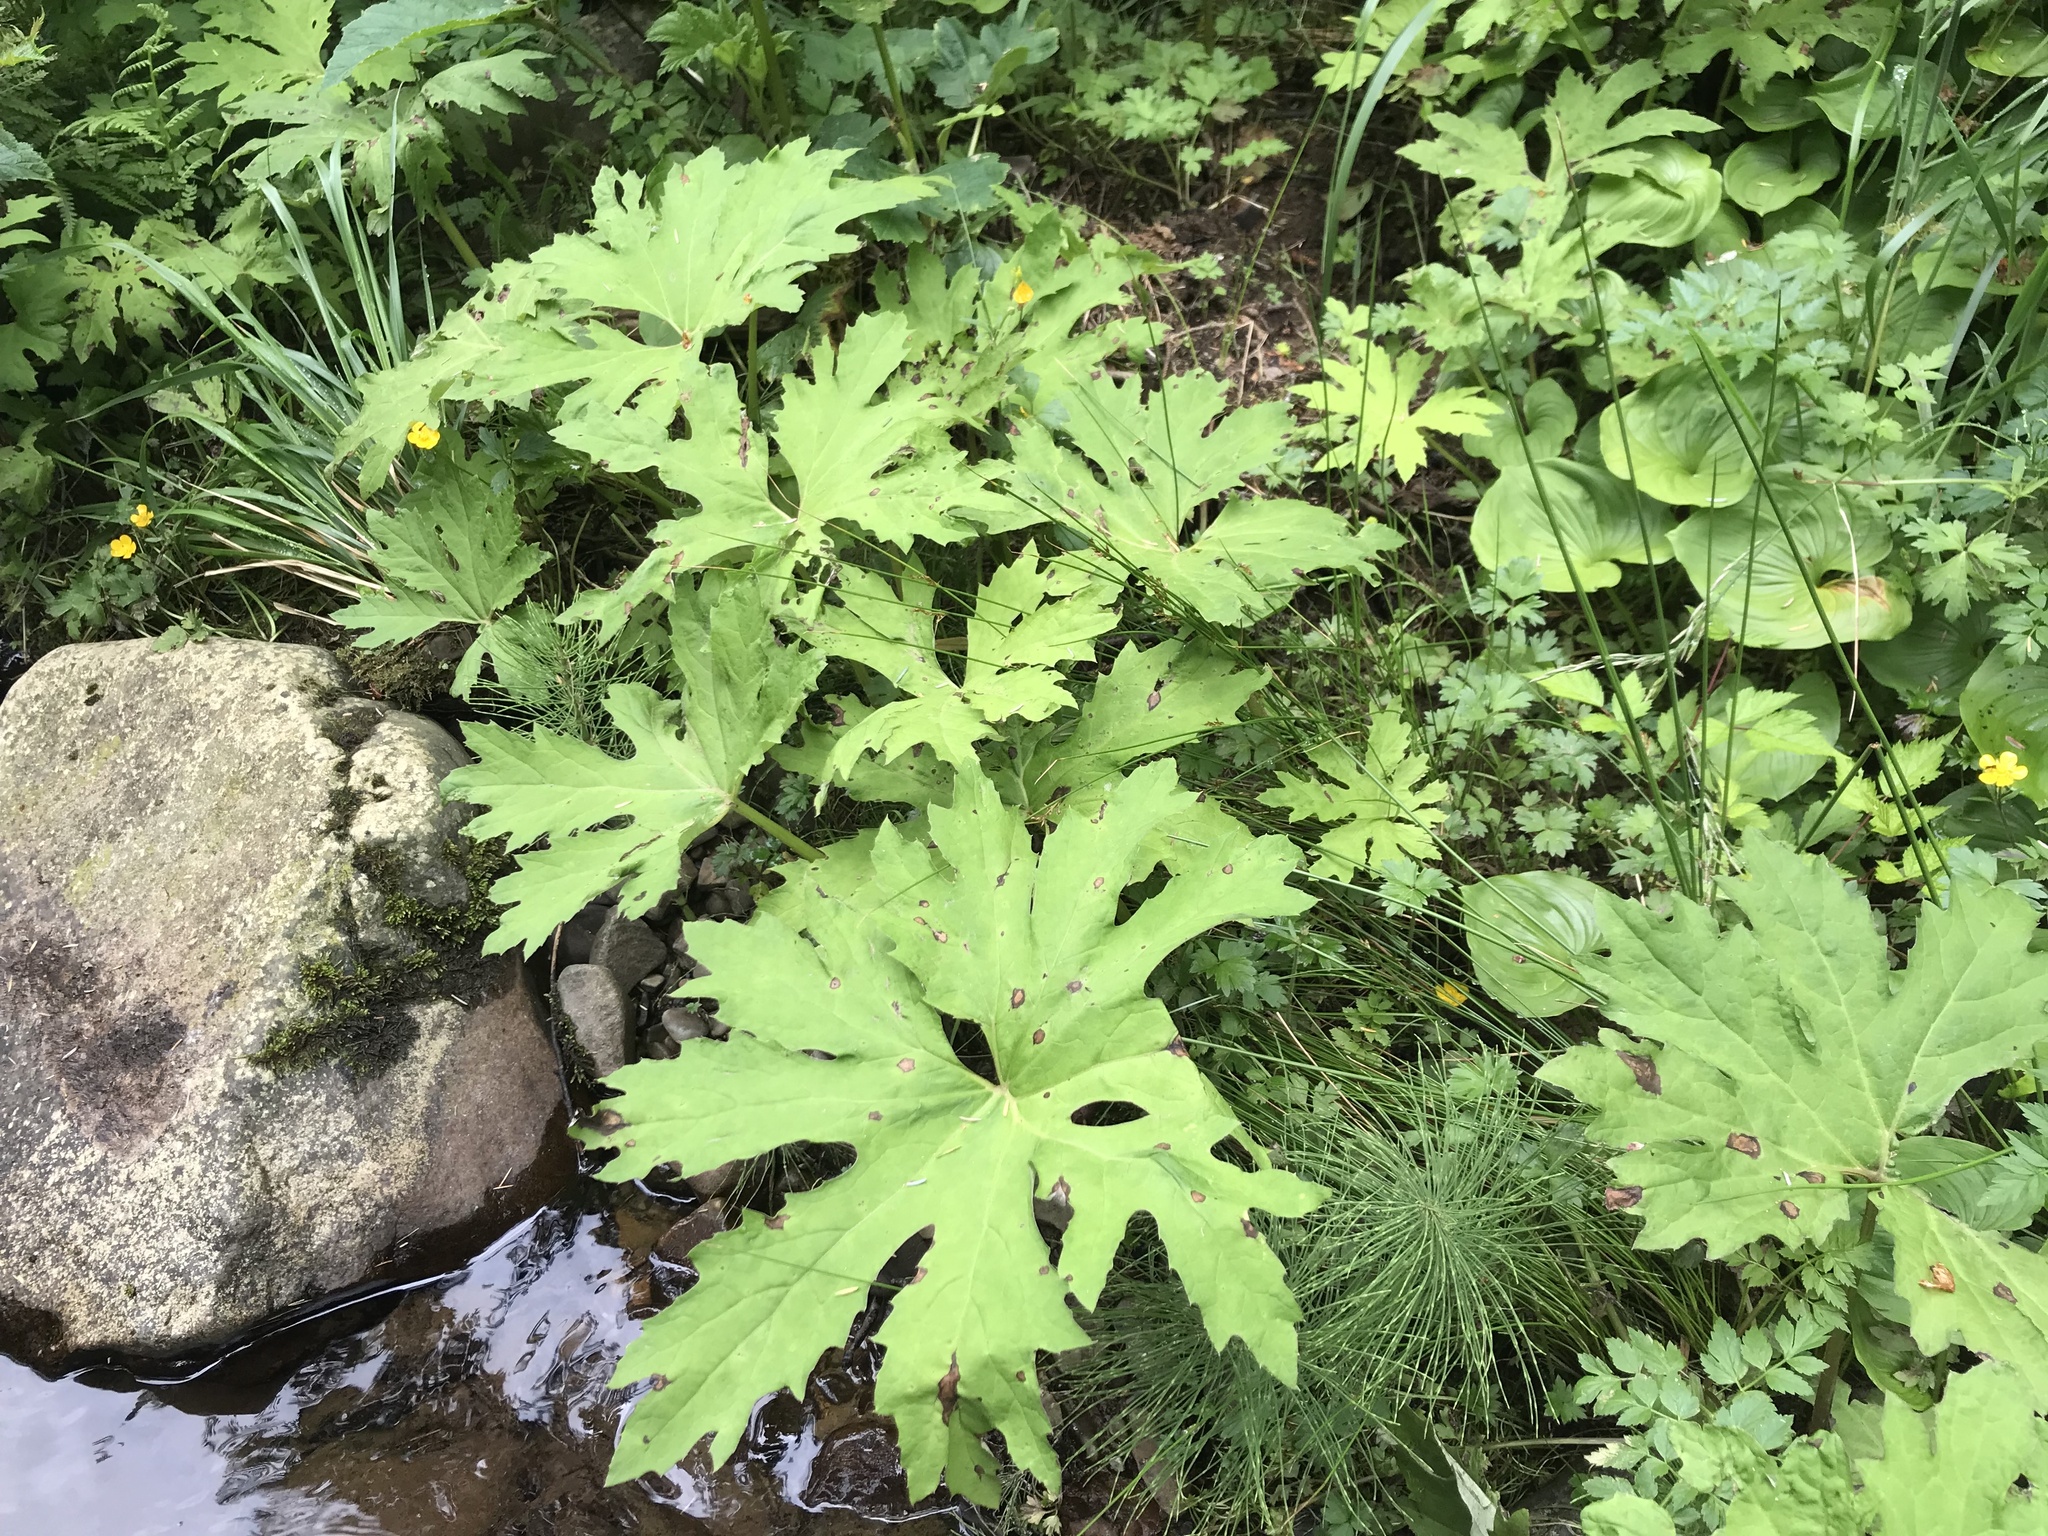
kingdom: Plantae
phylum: Tracheophyta
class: Magnoliopsida
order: Asterales
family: Asteraceae
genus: Petasites
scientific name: Petasites frigidus
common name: Arctic butterbur
